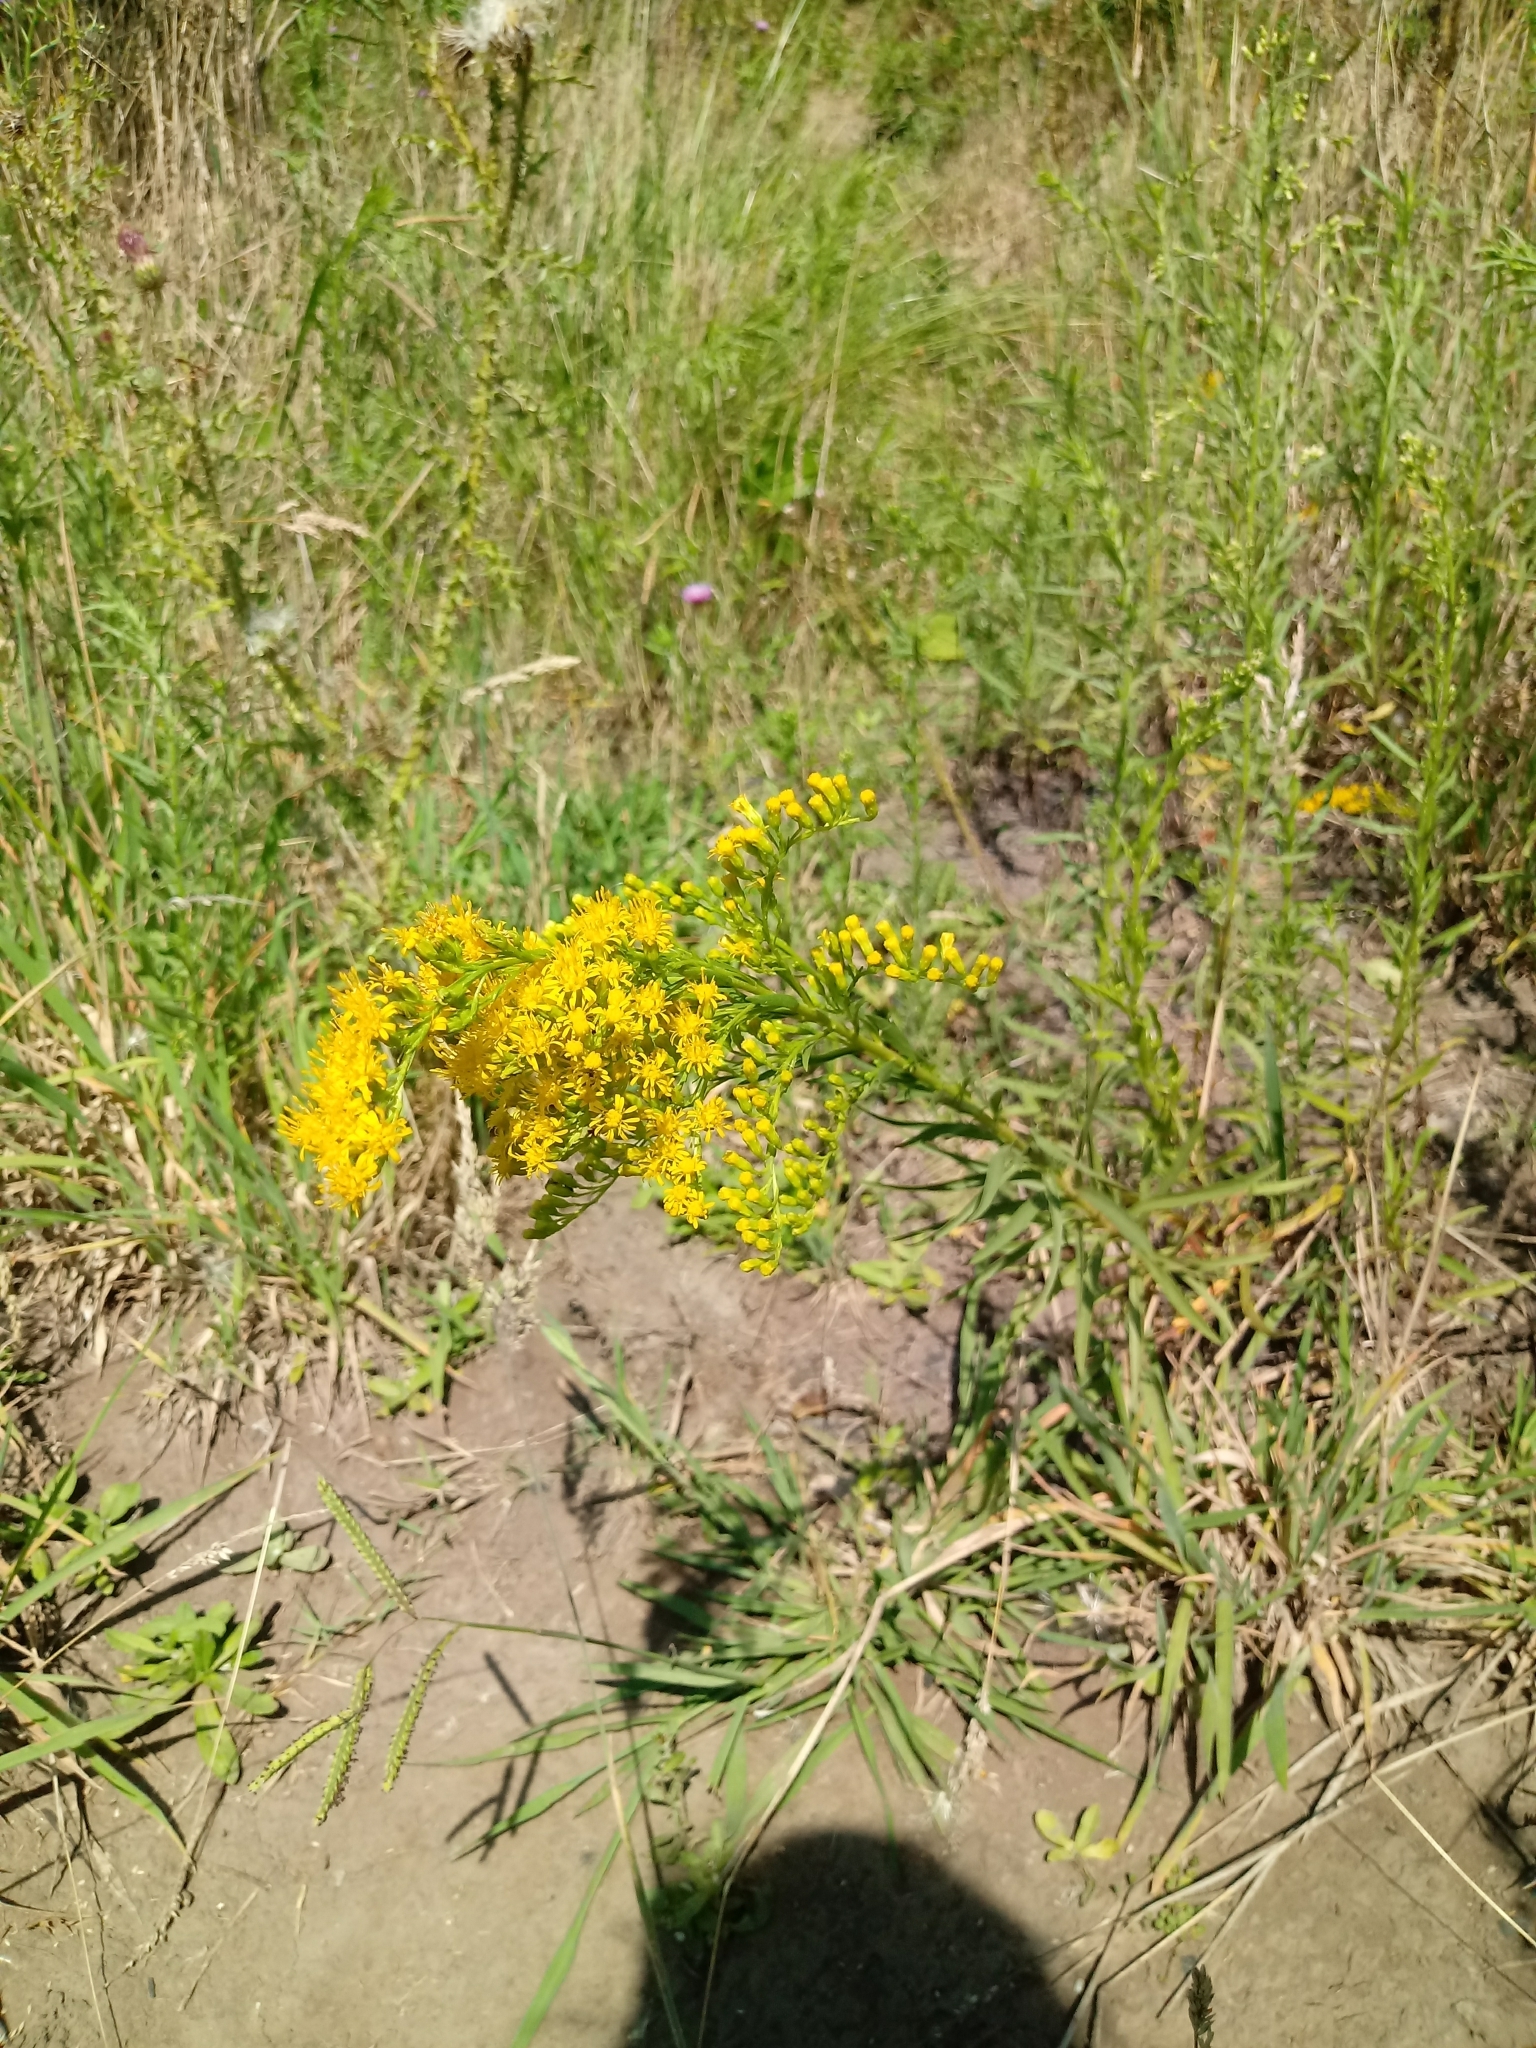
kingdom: Plantae
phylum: Tracheophyta
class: Magnoliopsida
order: Asterales
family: Asteraceae
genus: Solidago
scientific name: Solidago chilensis
